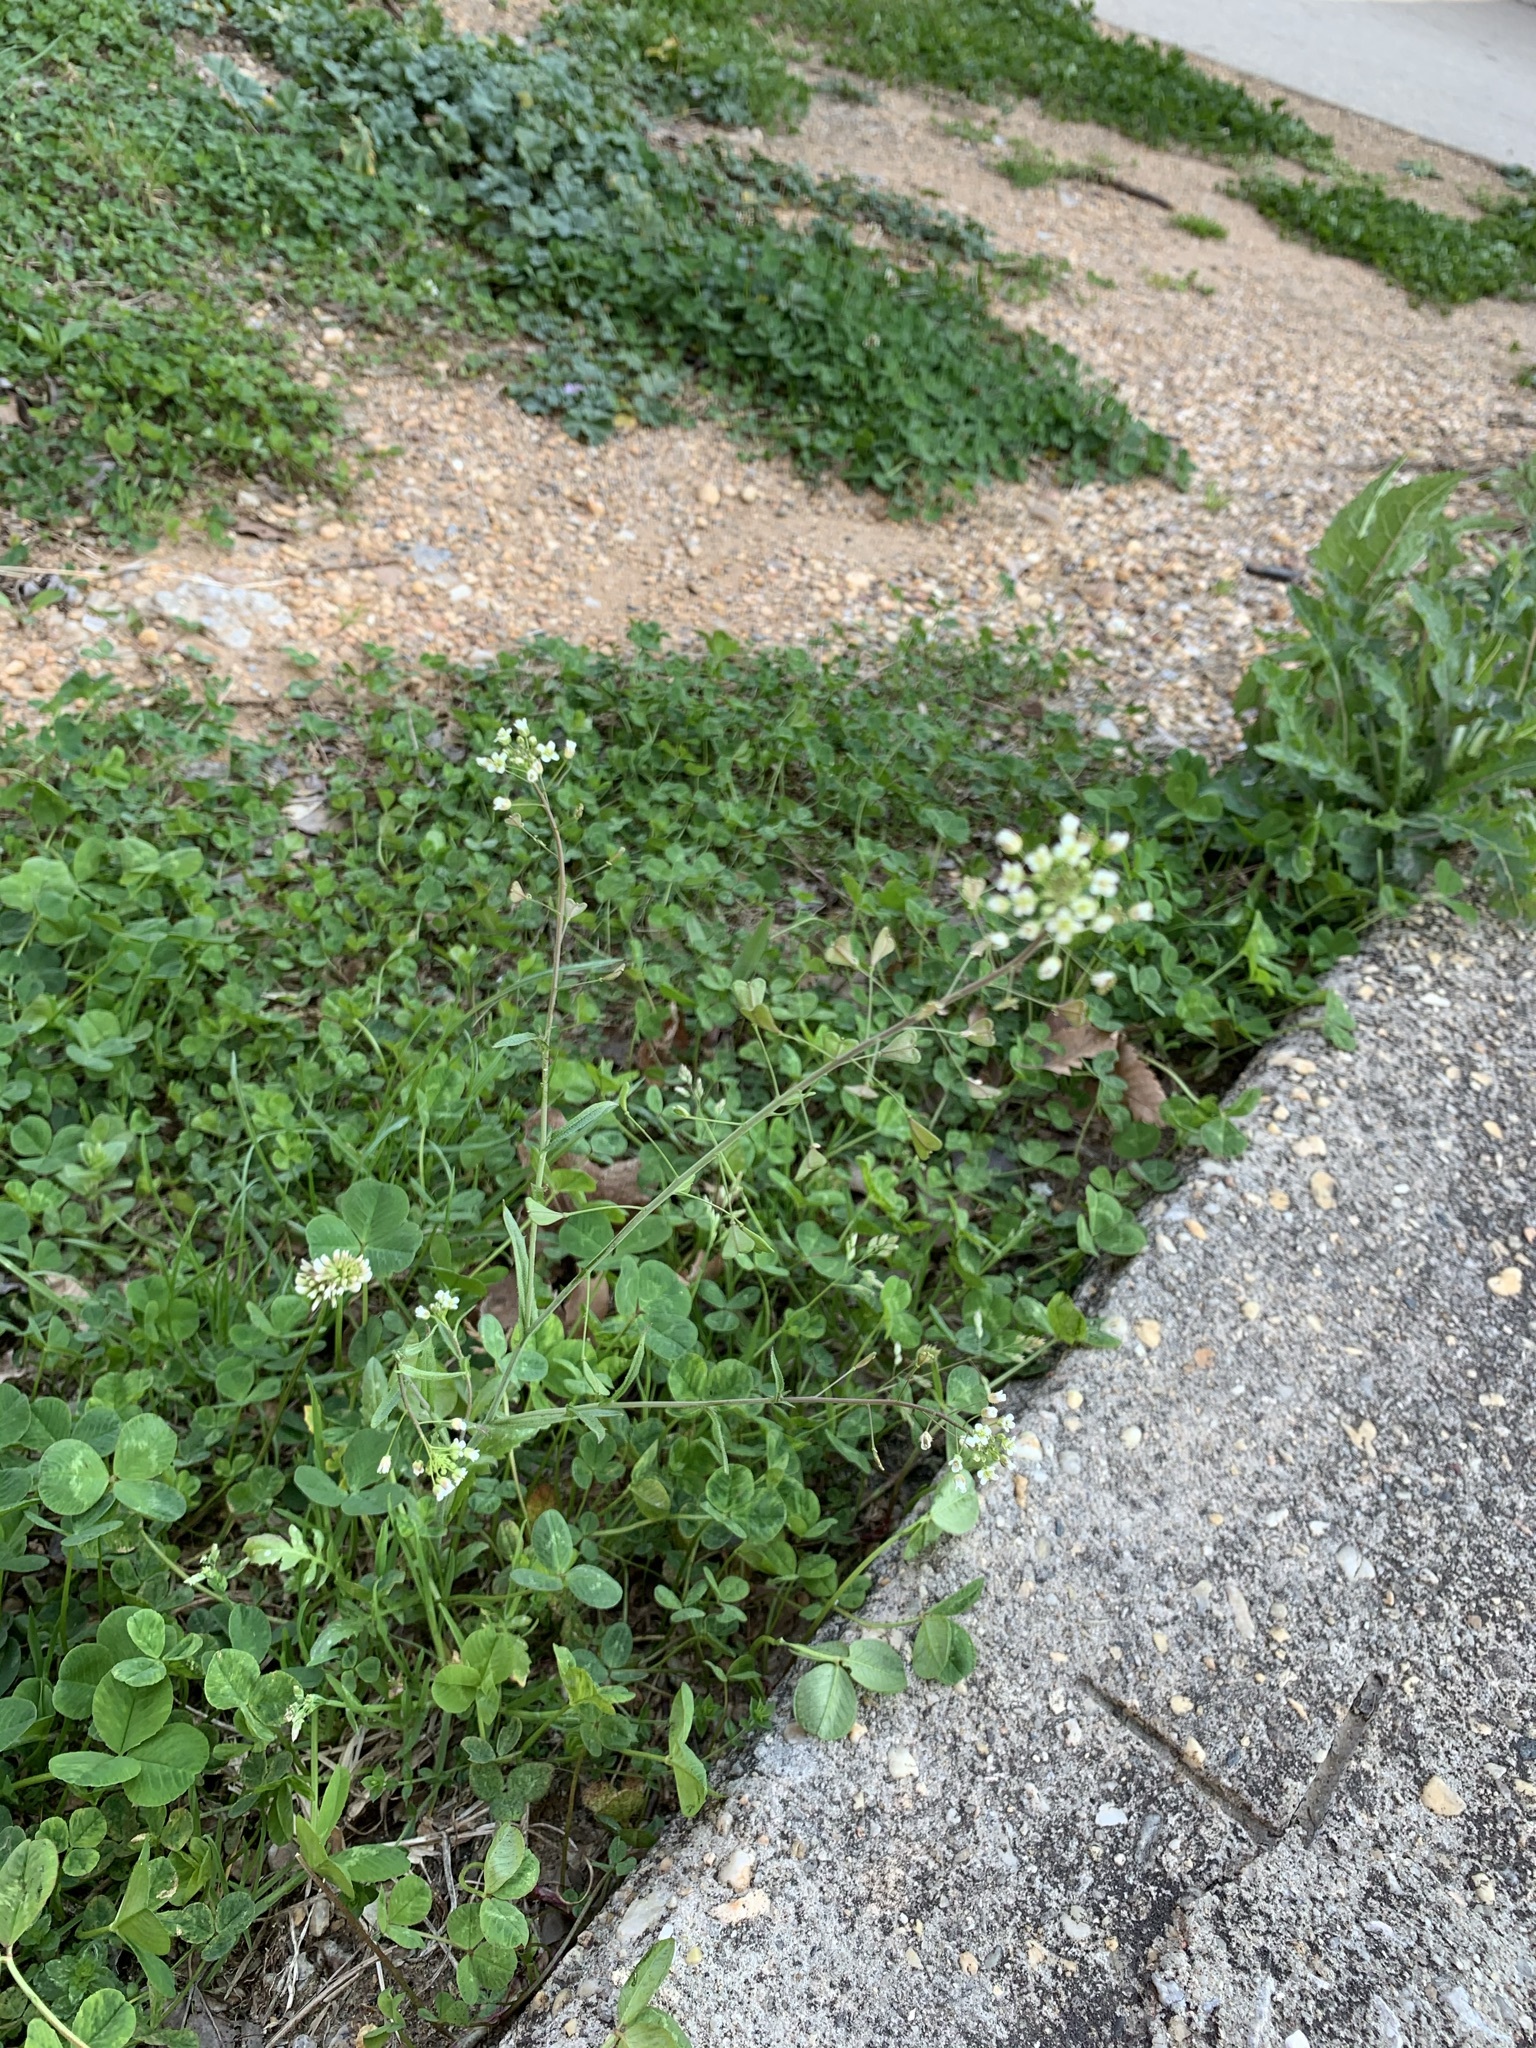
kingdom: Plantae
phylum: Tracheophyta
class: Magnoliopsida
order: Brassicales
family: Brassicaceae
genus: Capsella
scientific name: Capsella bursa-pastoris
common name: Shepherd's purse
